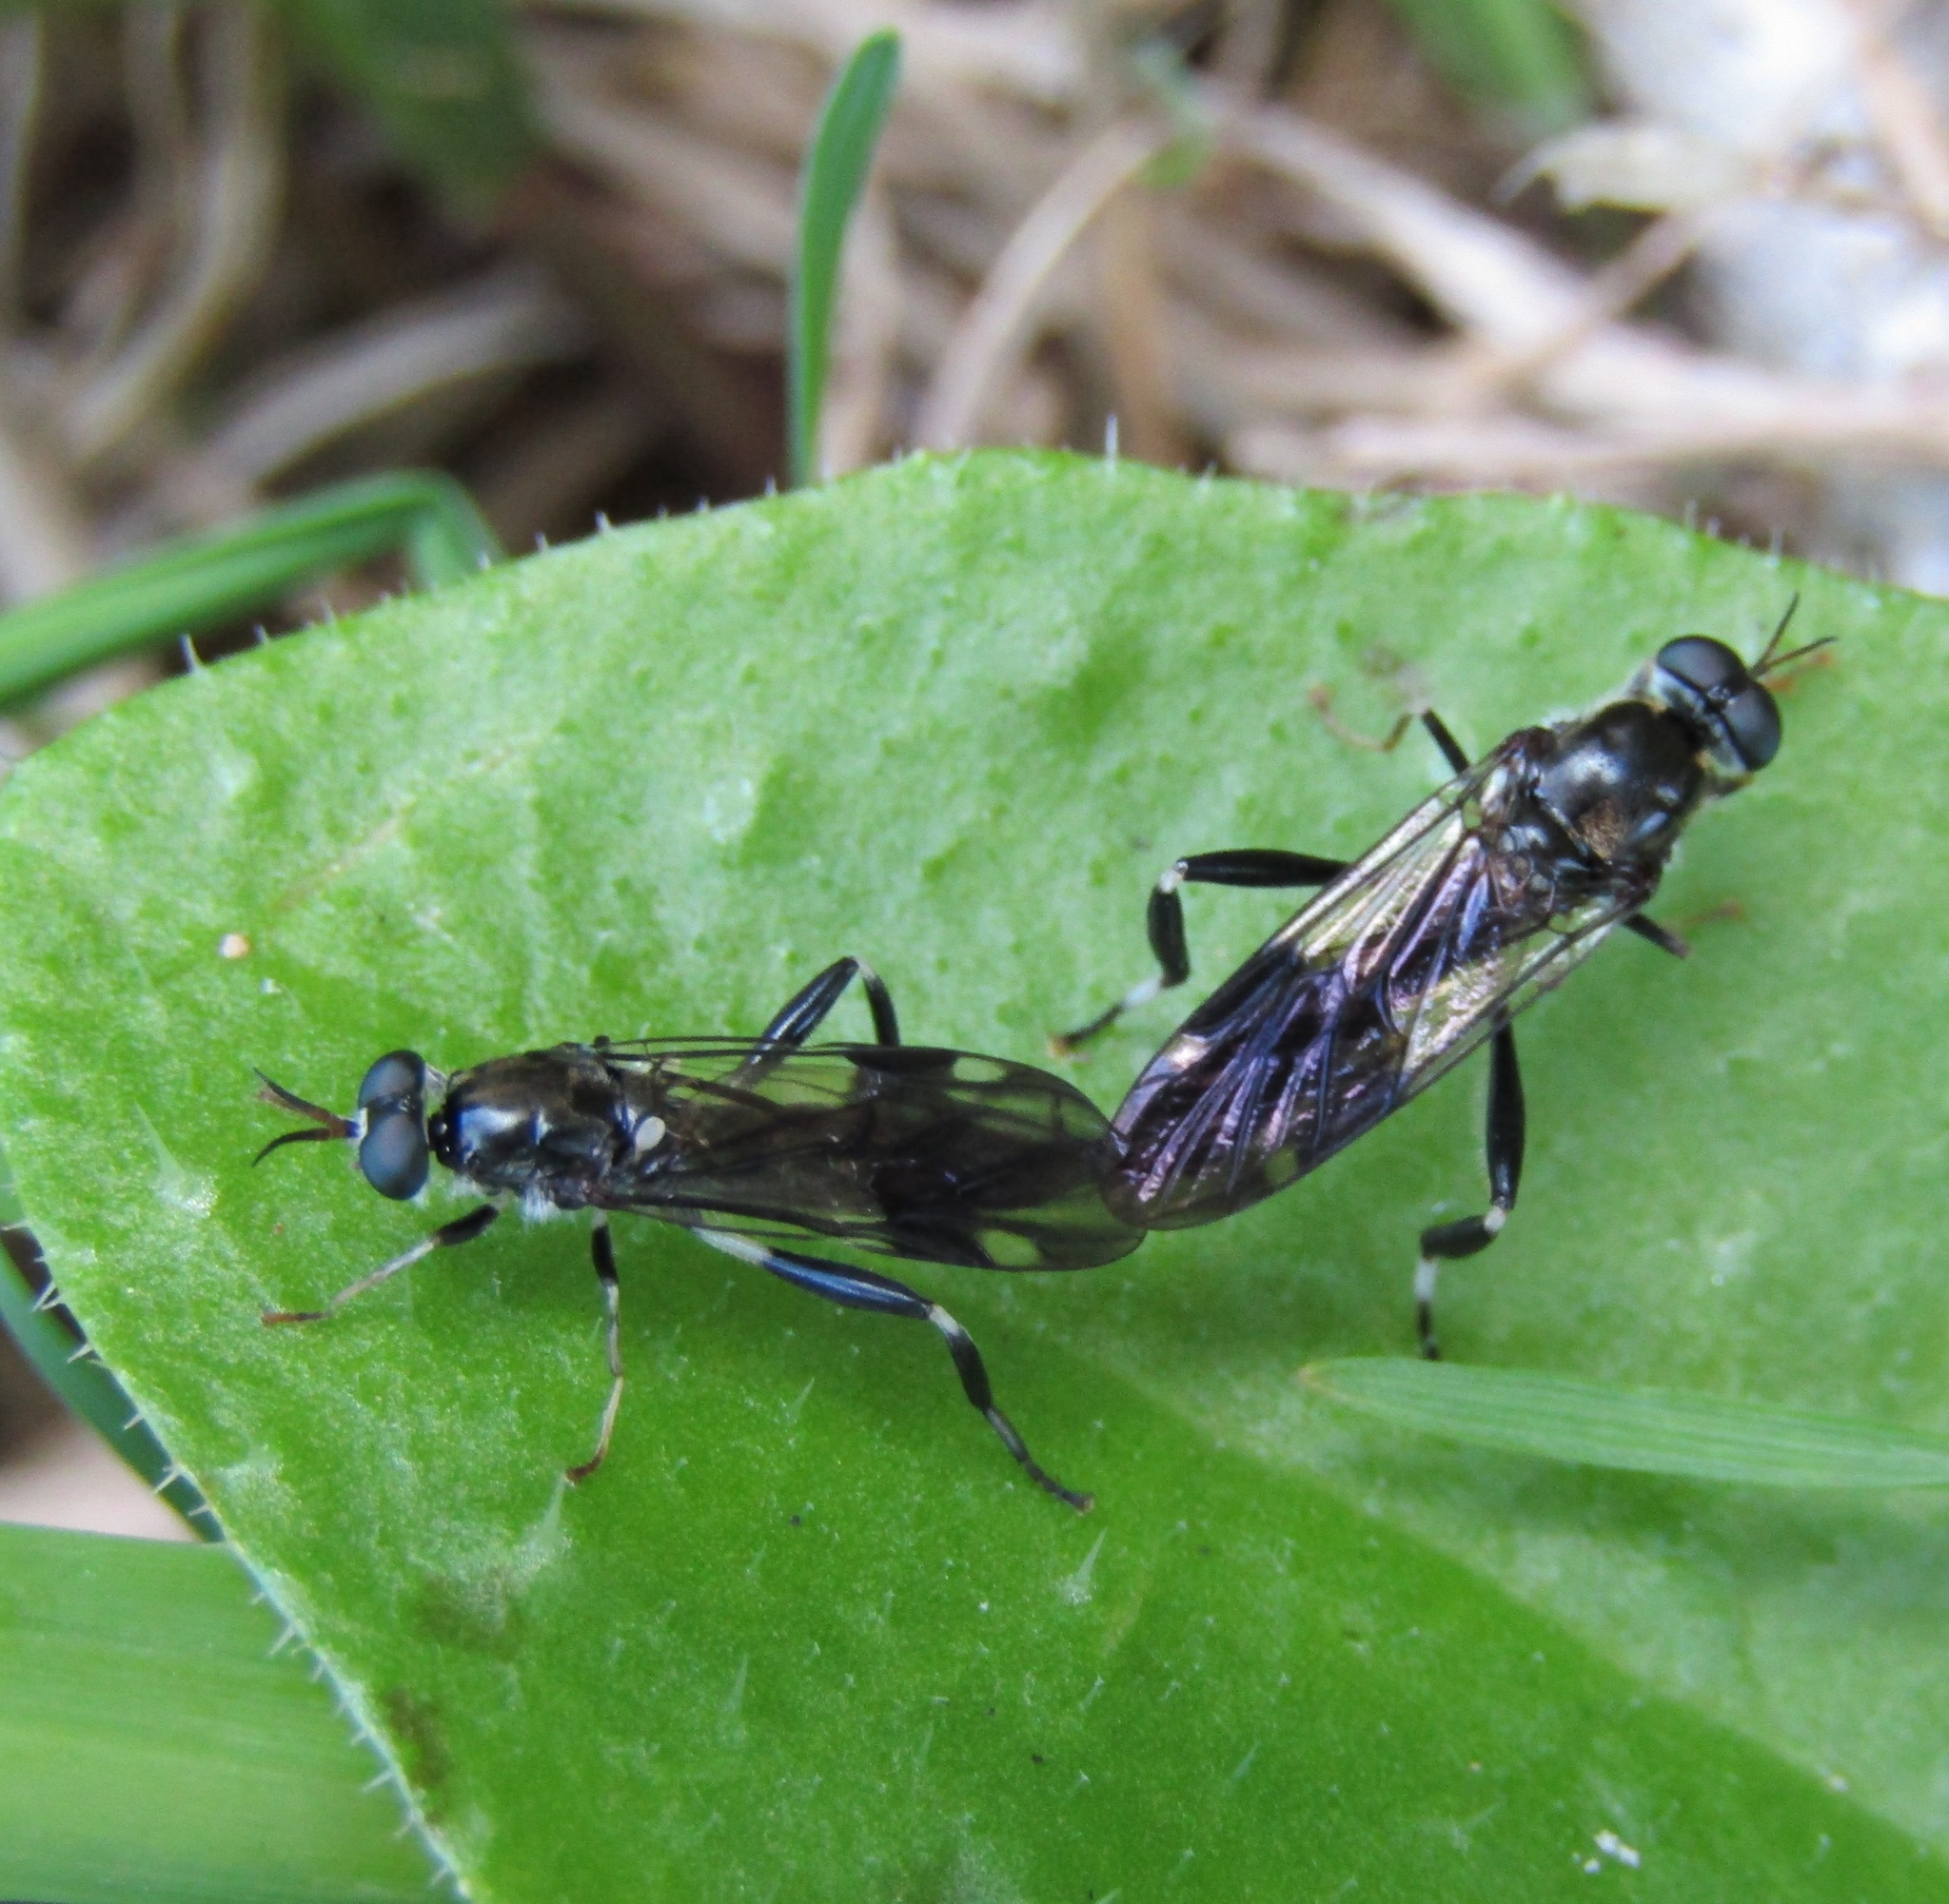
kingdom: Animalia
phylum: Arthropoda
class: Insecta
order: Diptera
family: Stratiomyidae
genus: Exaireta
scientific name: Exaireta spinigera
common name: Blue soldier fly
